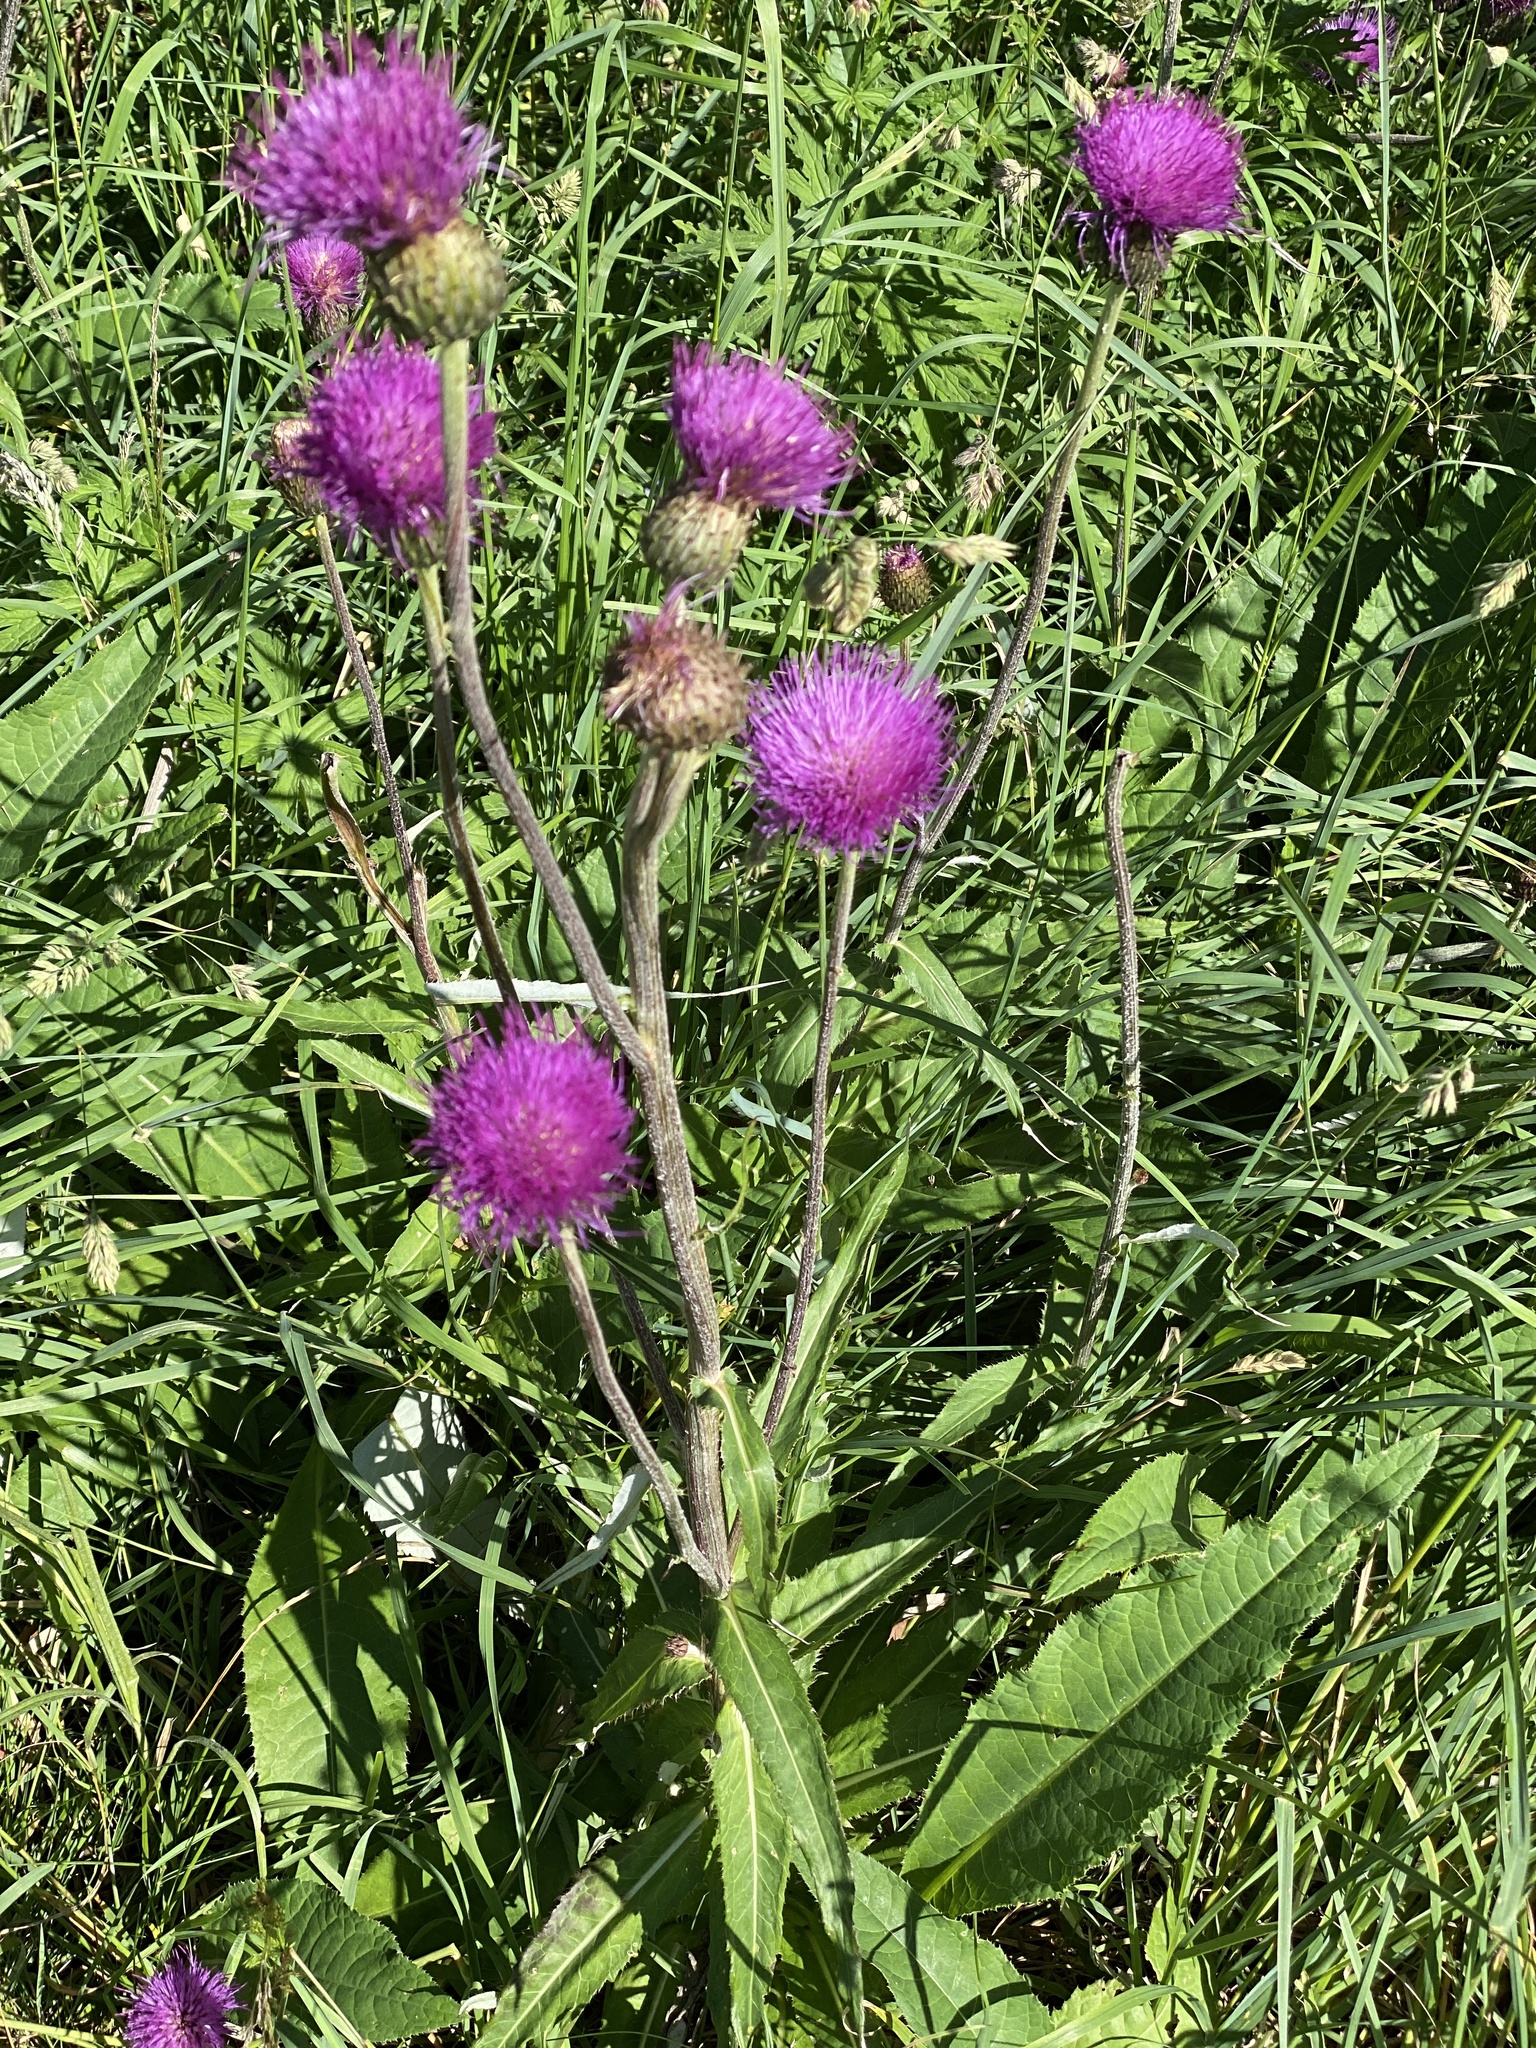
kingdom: Plantae
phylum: Tracheophyta
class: Magnoliopsida
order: Asterales
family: Asteraceae
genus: Cirsium
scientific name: Cirsium heterophyllum
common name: Melancholy thistle
